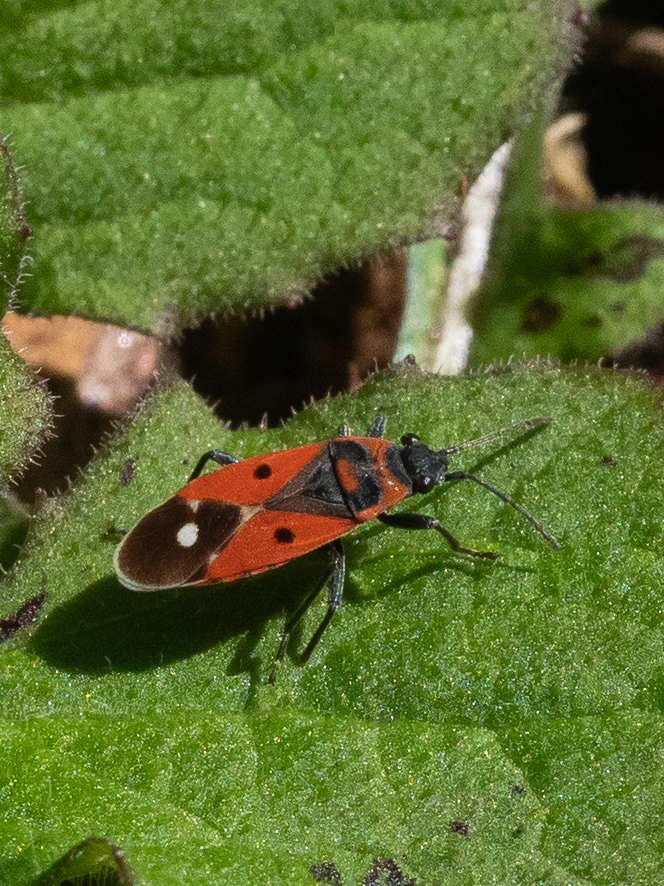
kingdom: Animalia
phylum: Arthropoda
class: Insecta
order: Hemiptera
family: Lygaeidae
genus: Melanocoryphus
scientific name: Melanocoryphus albomaculatus
